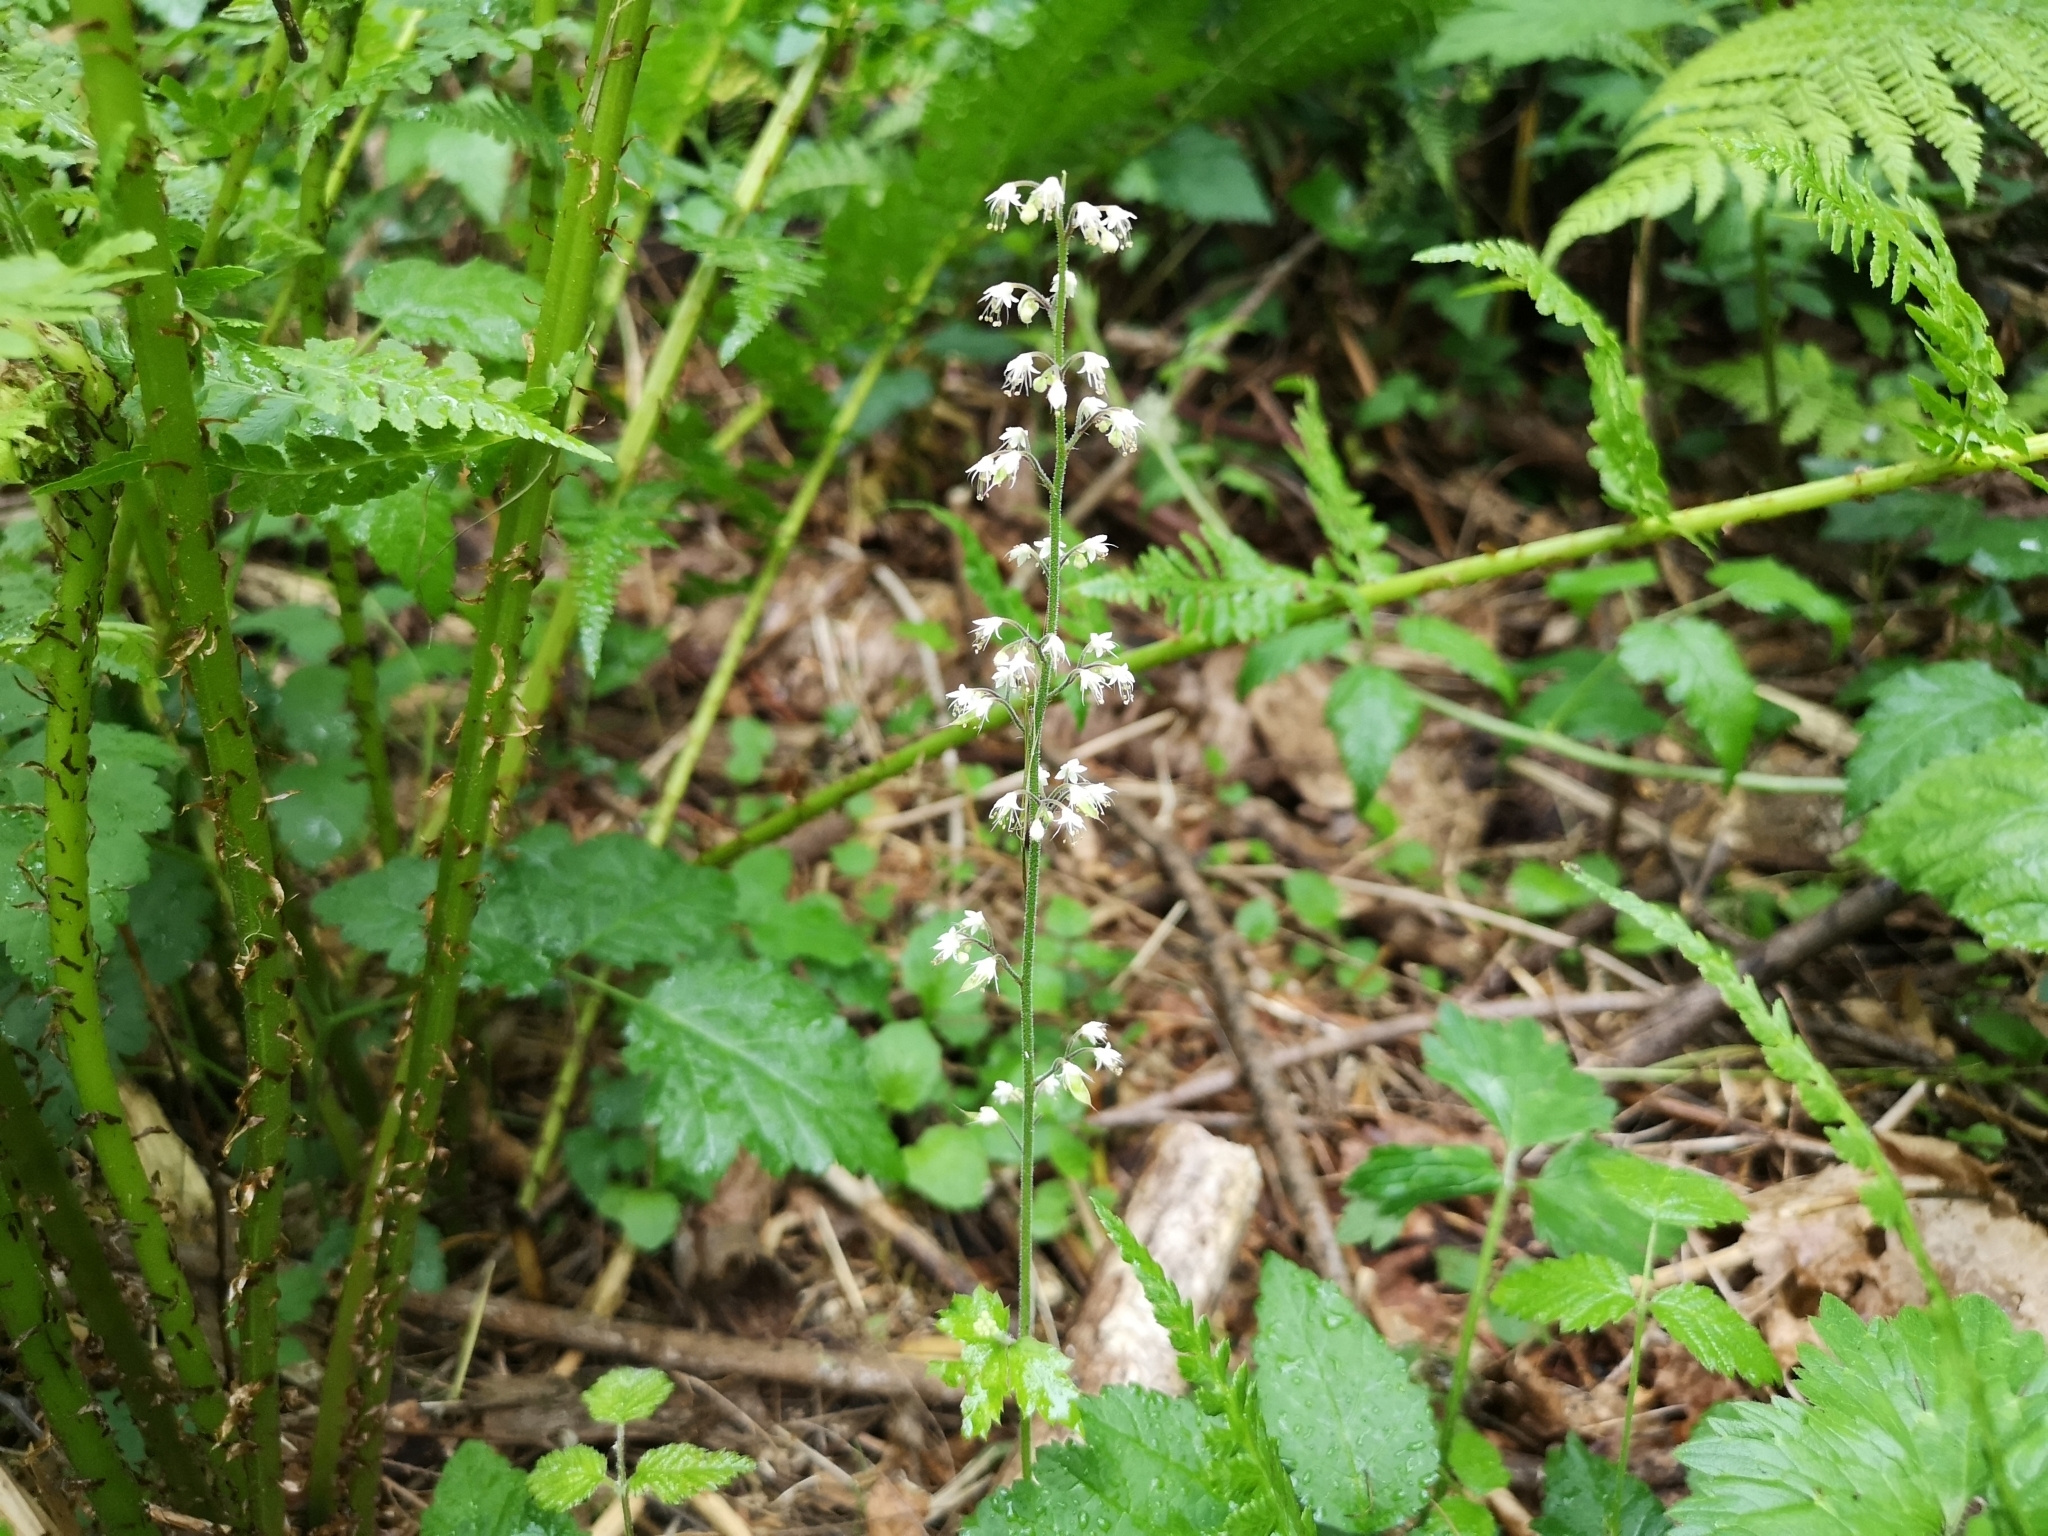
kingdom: Plantae
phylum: Tracheophyta
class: Magnoliopsida
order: Saxifragales
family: Saxifragaceae
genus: Tiarella
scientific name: Tiarella trifoliata
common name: Sugar-scoop
